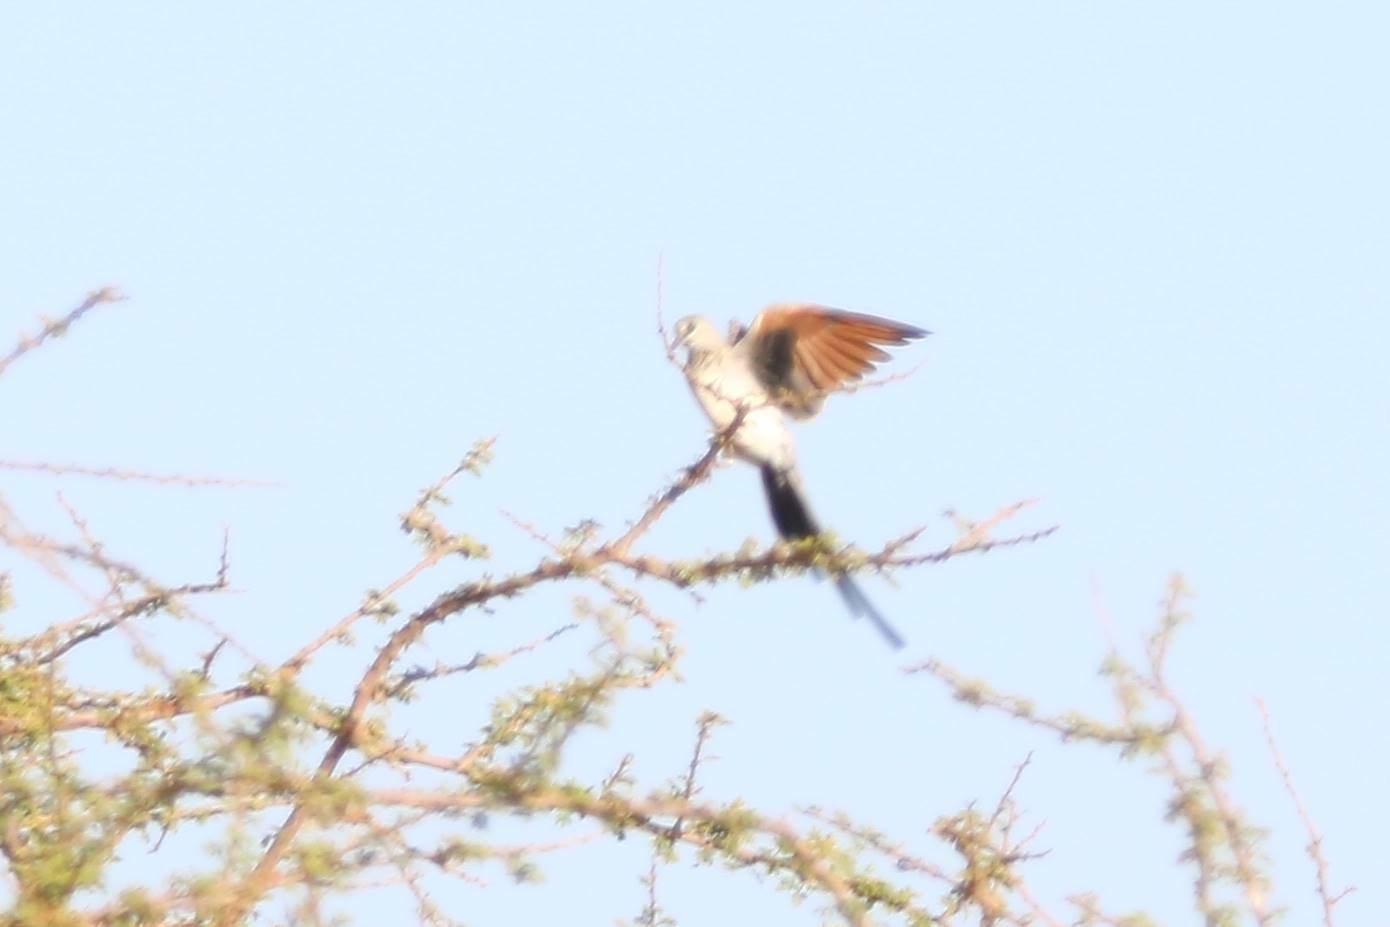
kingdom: Animalia
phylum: Chordata
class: Aves
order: Columbiformes
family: Columbidae
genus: Oena
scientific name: Oena capensis
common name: Namaqua dove
